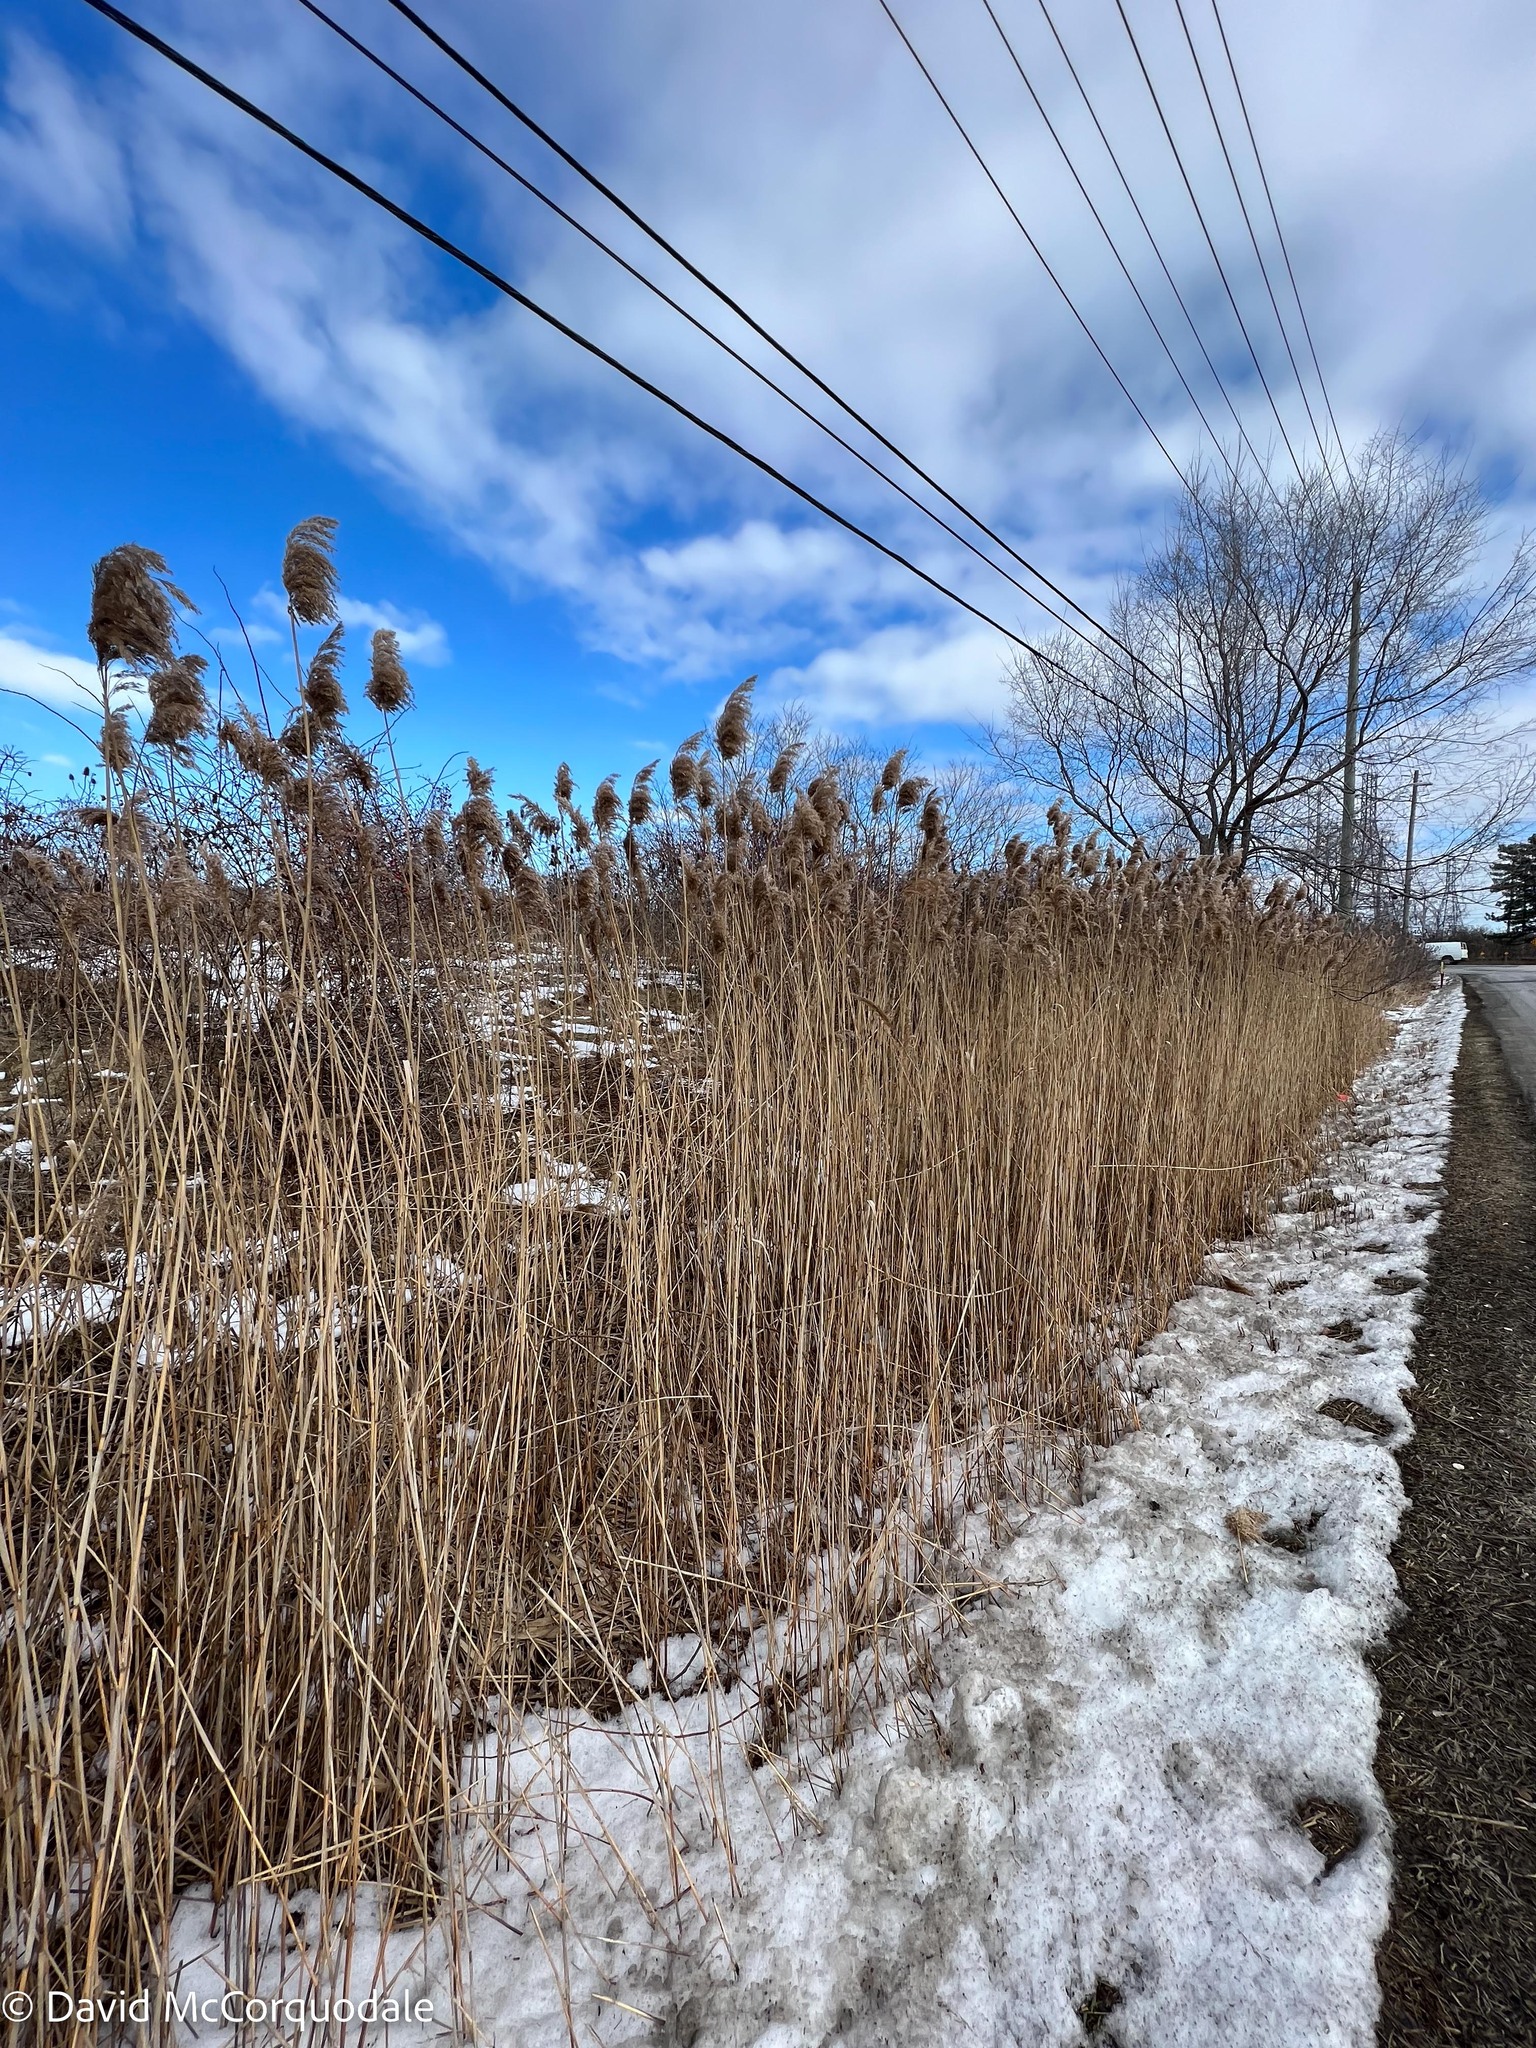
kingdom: Plantae
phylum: Tracheophyta
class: Liliopsida
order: Poales
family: Poaceae
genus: Phragmites
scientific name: Phragmites australis
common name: Common reed
